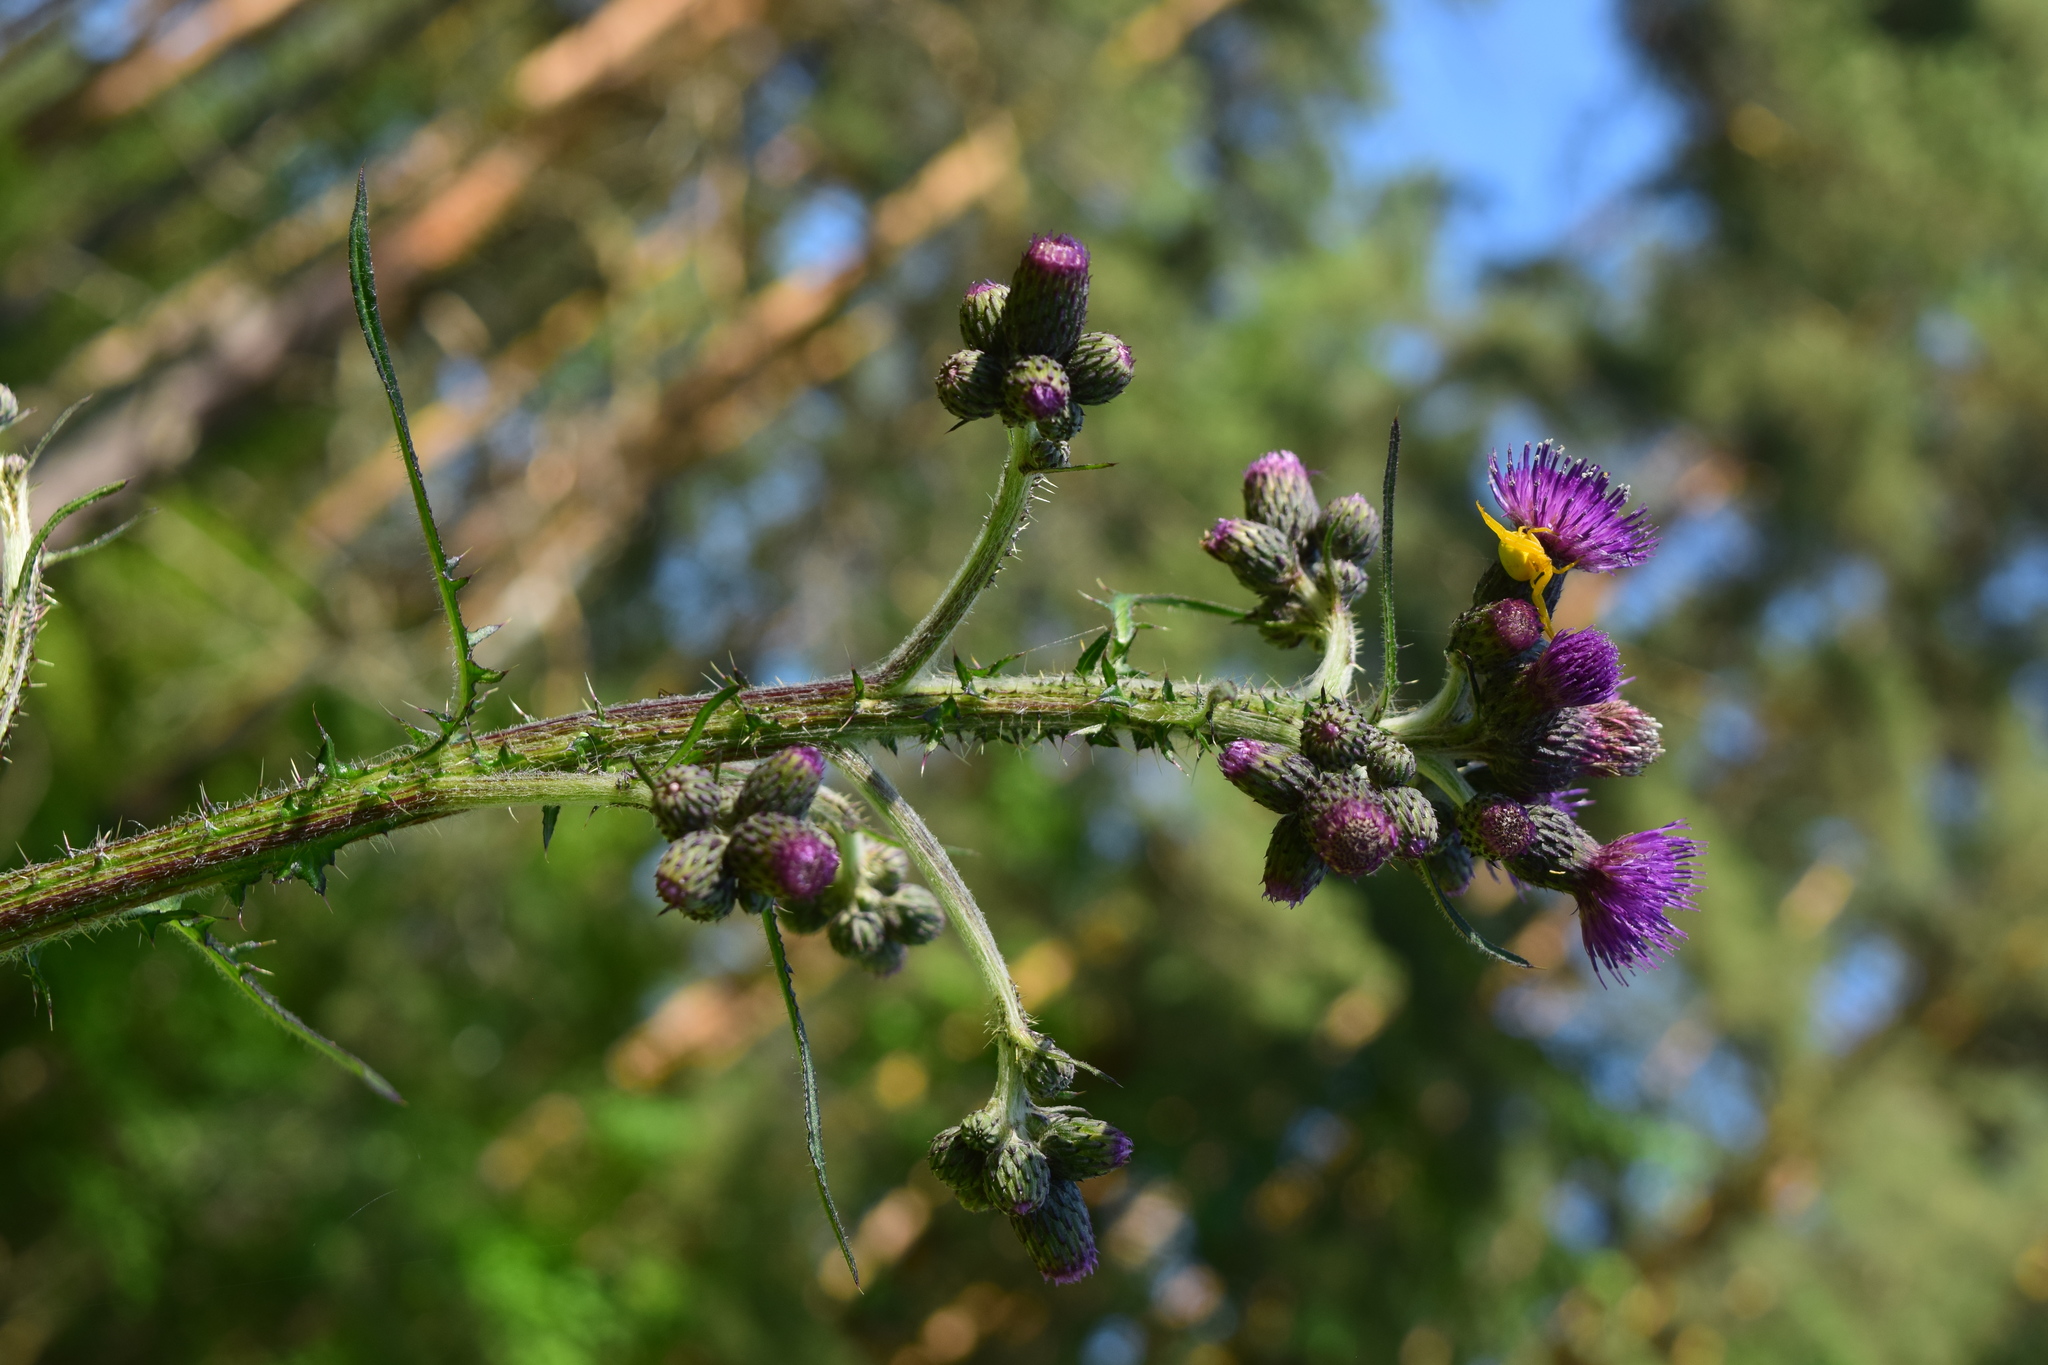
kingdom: Plantae
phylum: Tracheophyta
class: Magnoliopsida
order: Asterales
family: Asteraceae
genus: Cirsium
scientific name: Cirsium palustre
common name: Marsh thistle
